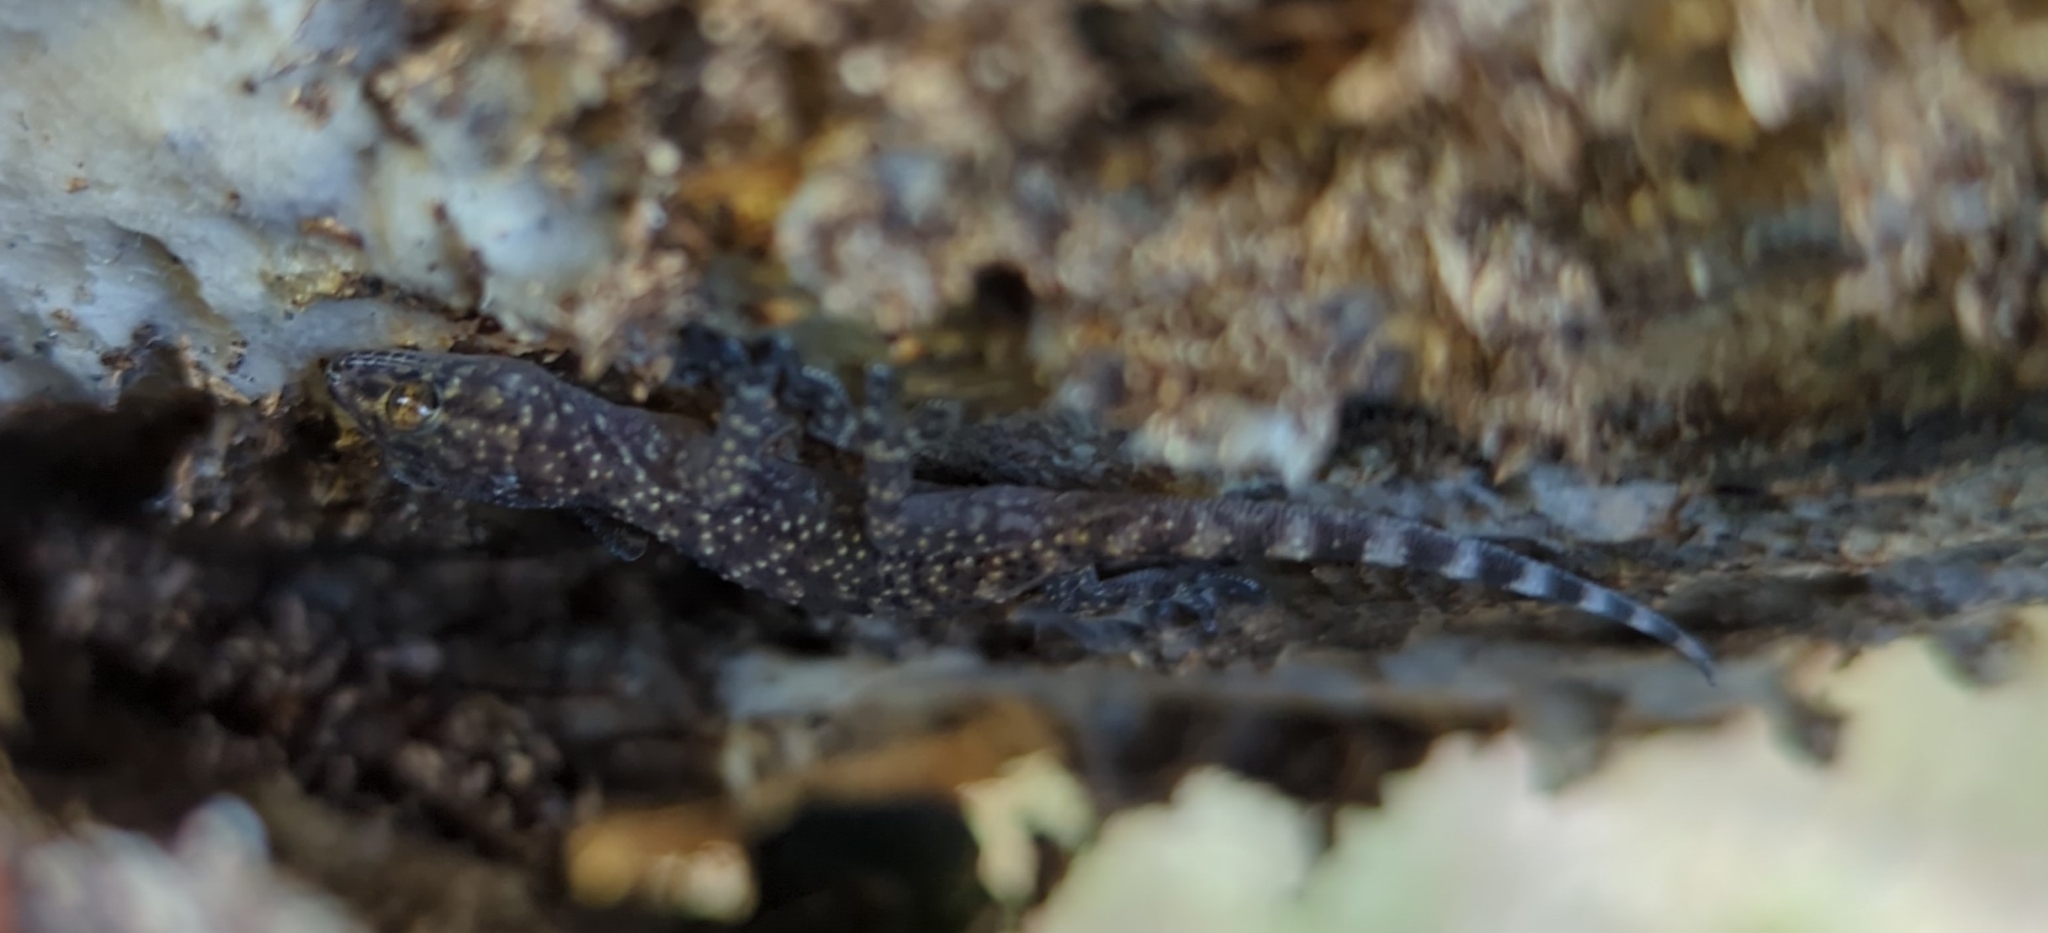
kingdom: Animalia
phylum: Chordata
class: Squamata
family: Gekkonidae
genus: Hemidactylus
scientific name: Hemidactylus turcicus
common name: Turkish gecko
